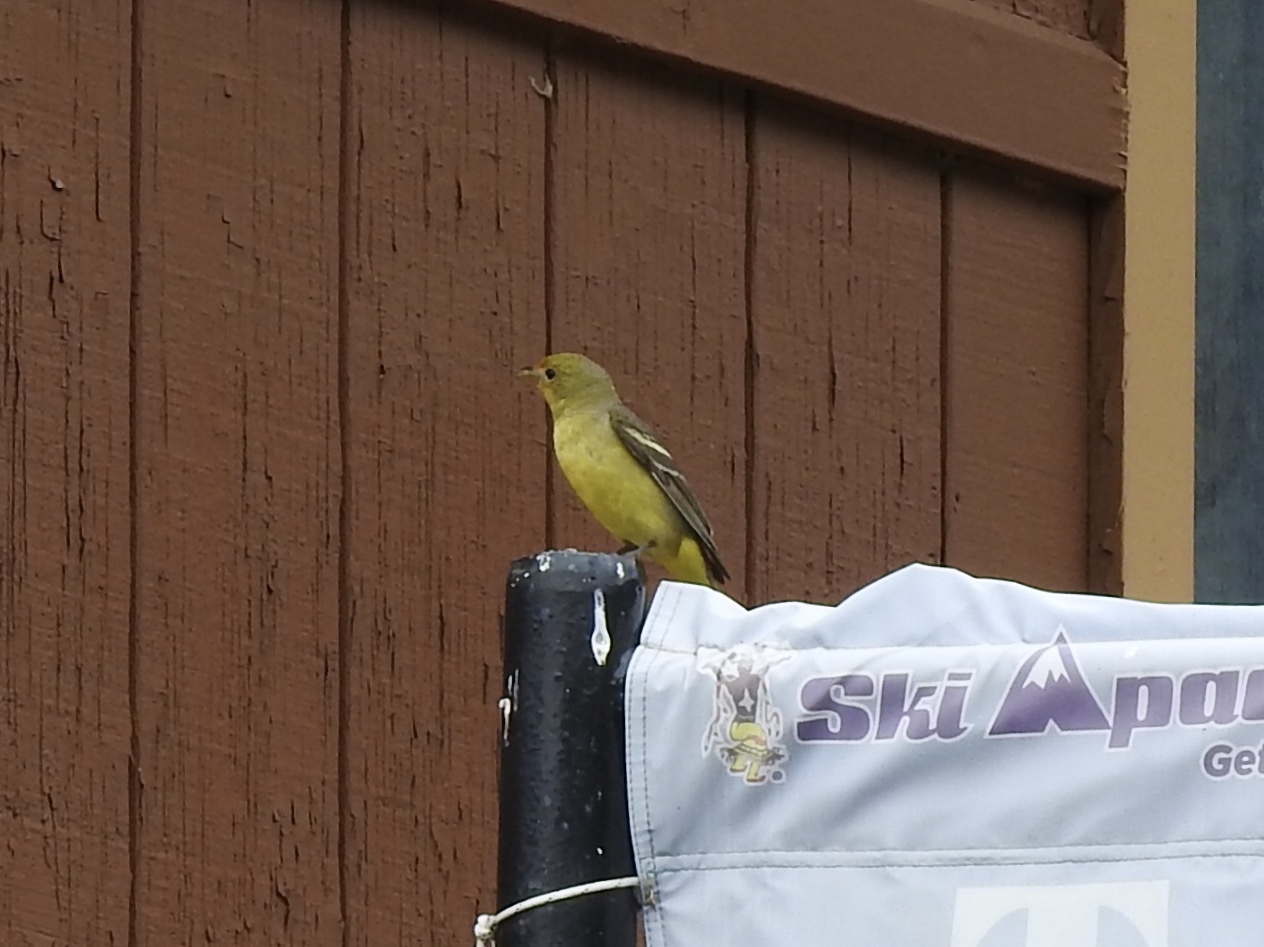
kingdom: Animalia
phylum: Chordata
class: Aves
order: Passeriformes
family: Cardinalidae
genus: Piranga
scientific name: Piranga ludoviciana
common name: Western tanager
